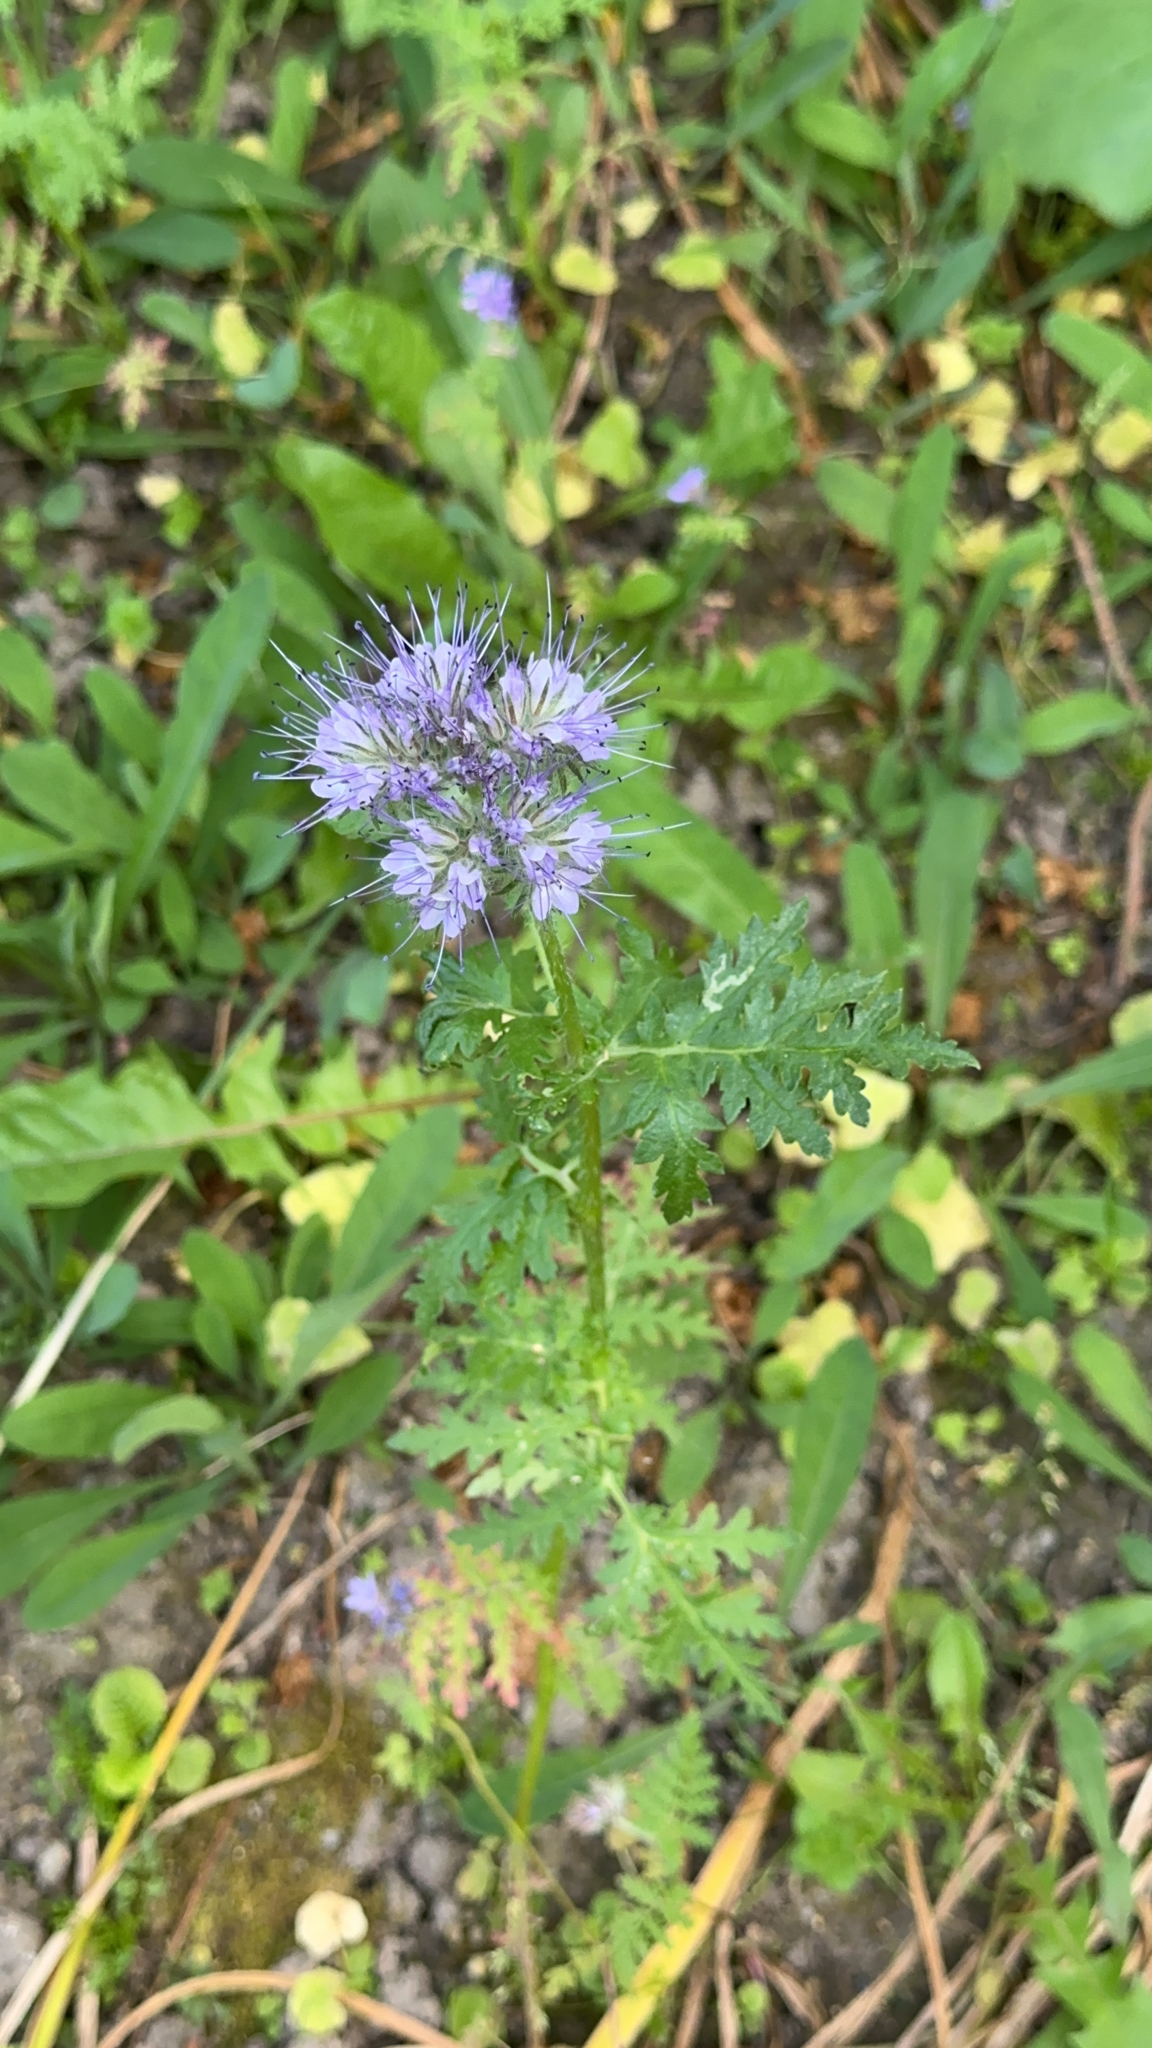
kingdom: Plantae
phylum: Tracheophyta
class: Magnoliopsida
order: Boraginales
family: Hydrophyllaceae
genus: Phacelia
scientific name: Phacelia tanacetifolia
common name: Phacelia
